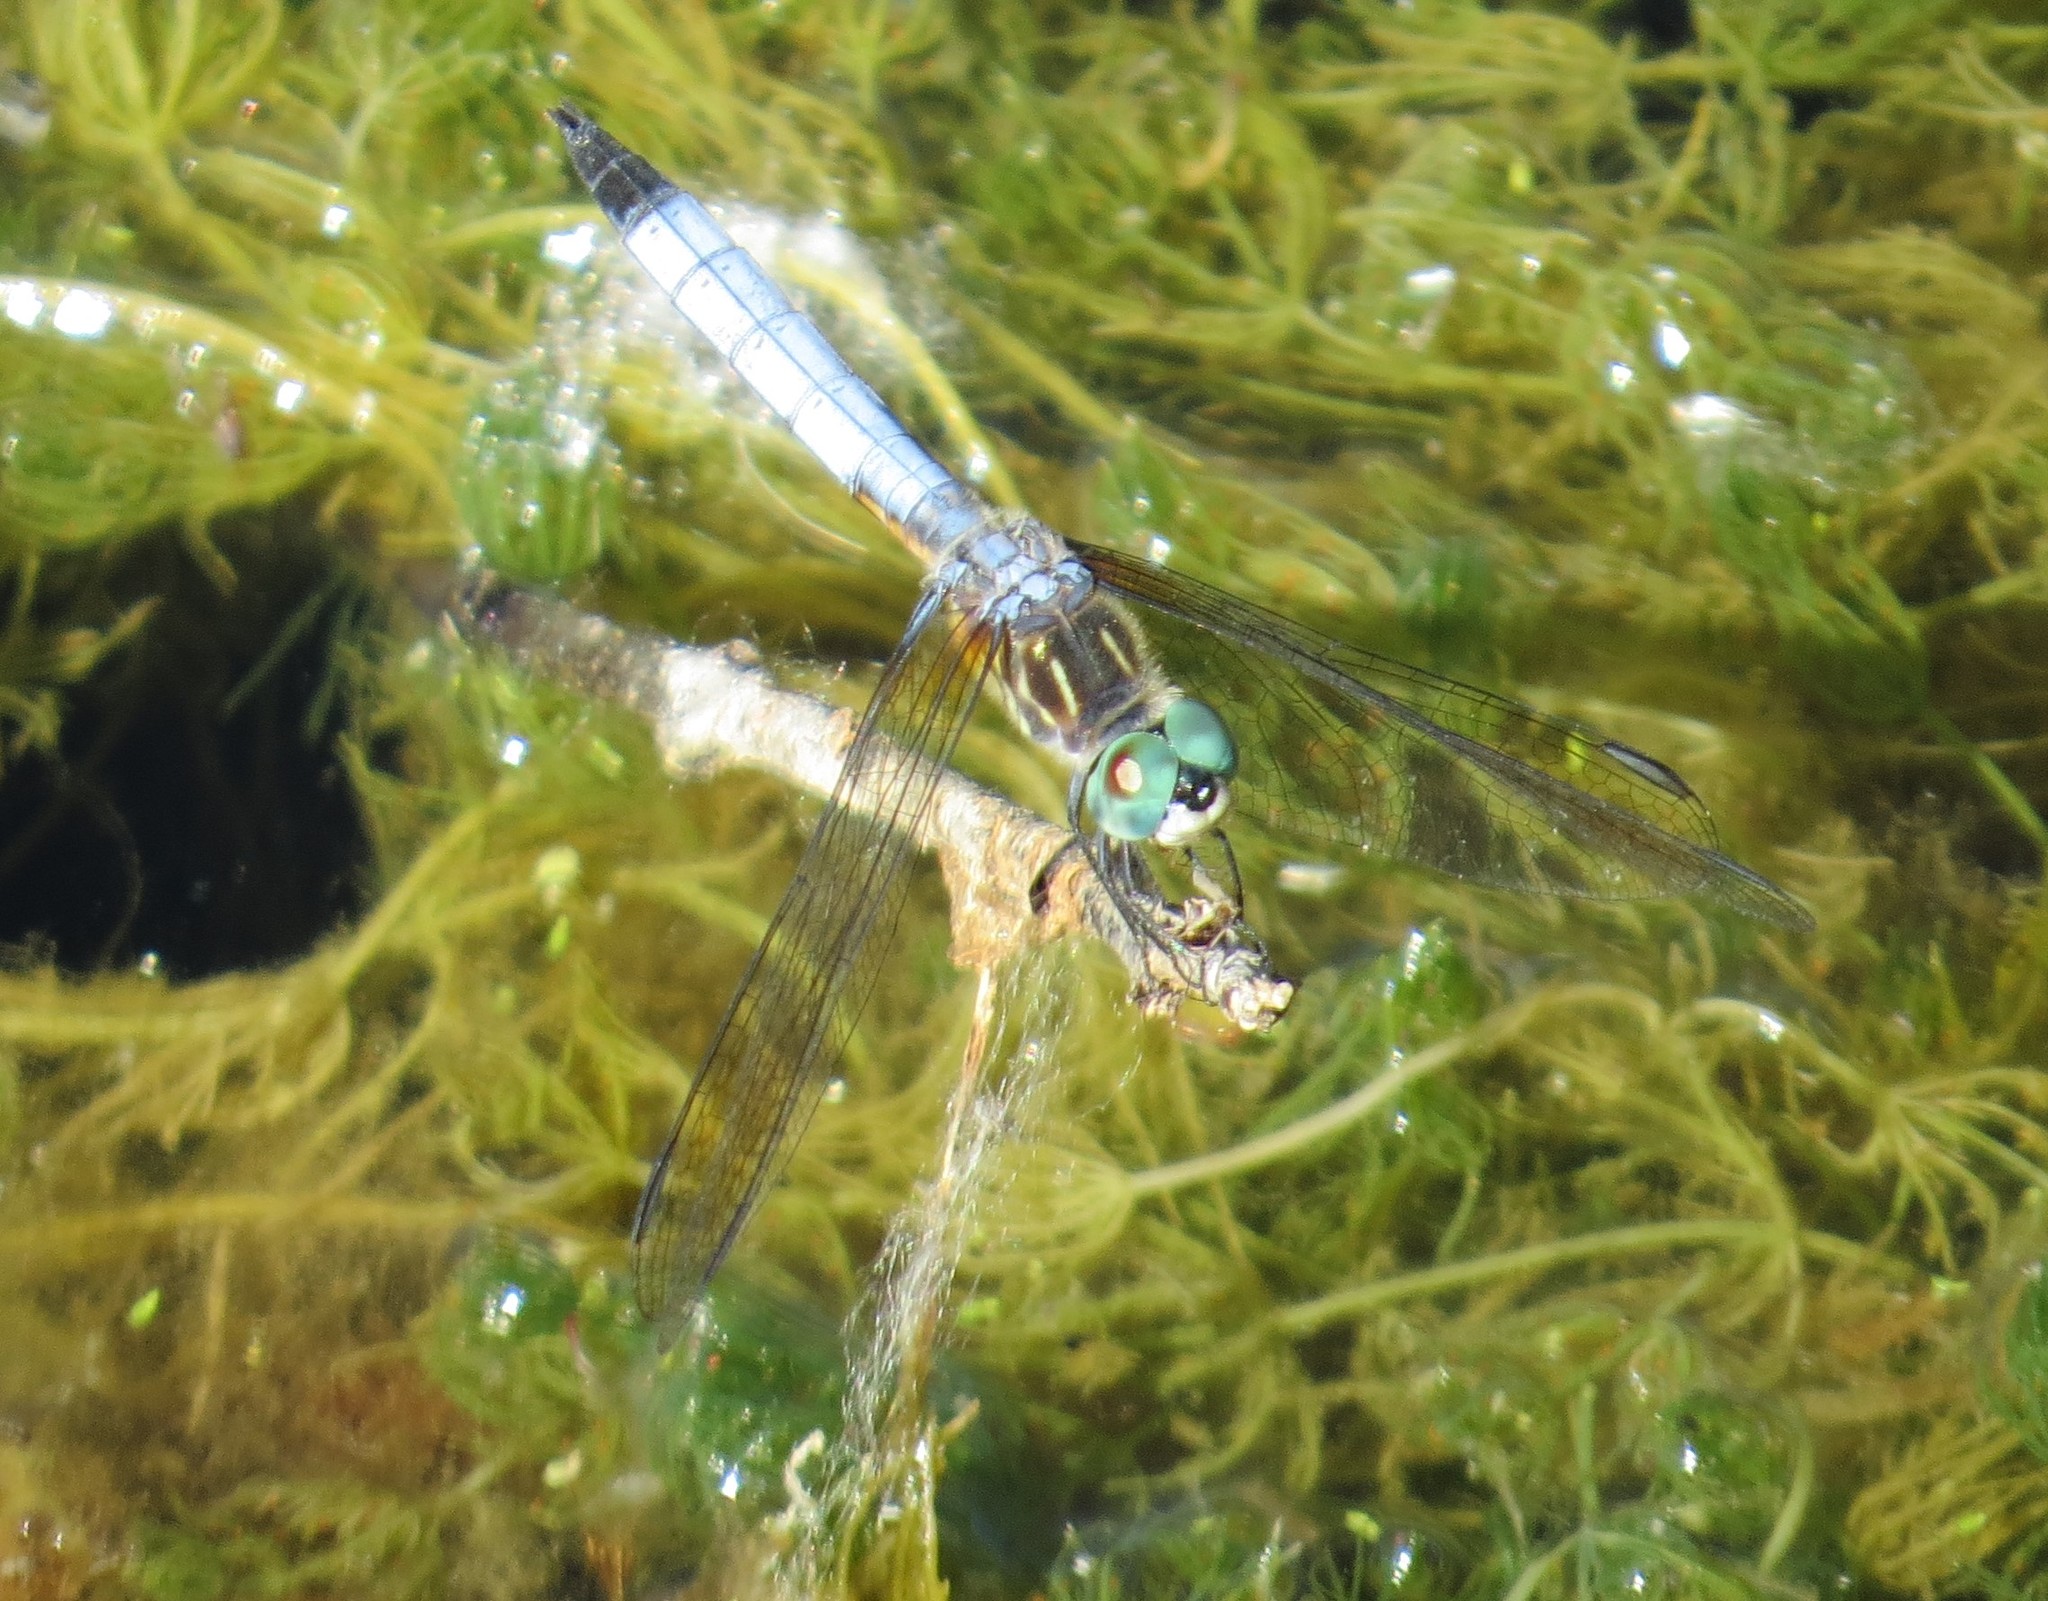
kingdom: Animalia
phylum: Arthropoda
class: Insecta
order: Odonata
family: Libellulidae
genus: Pachydiplax
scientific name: Pachydiplax longipennis
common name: Blue dasher
